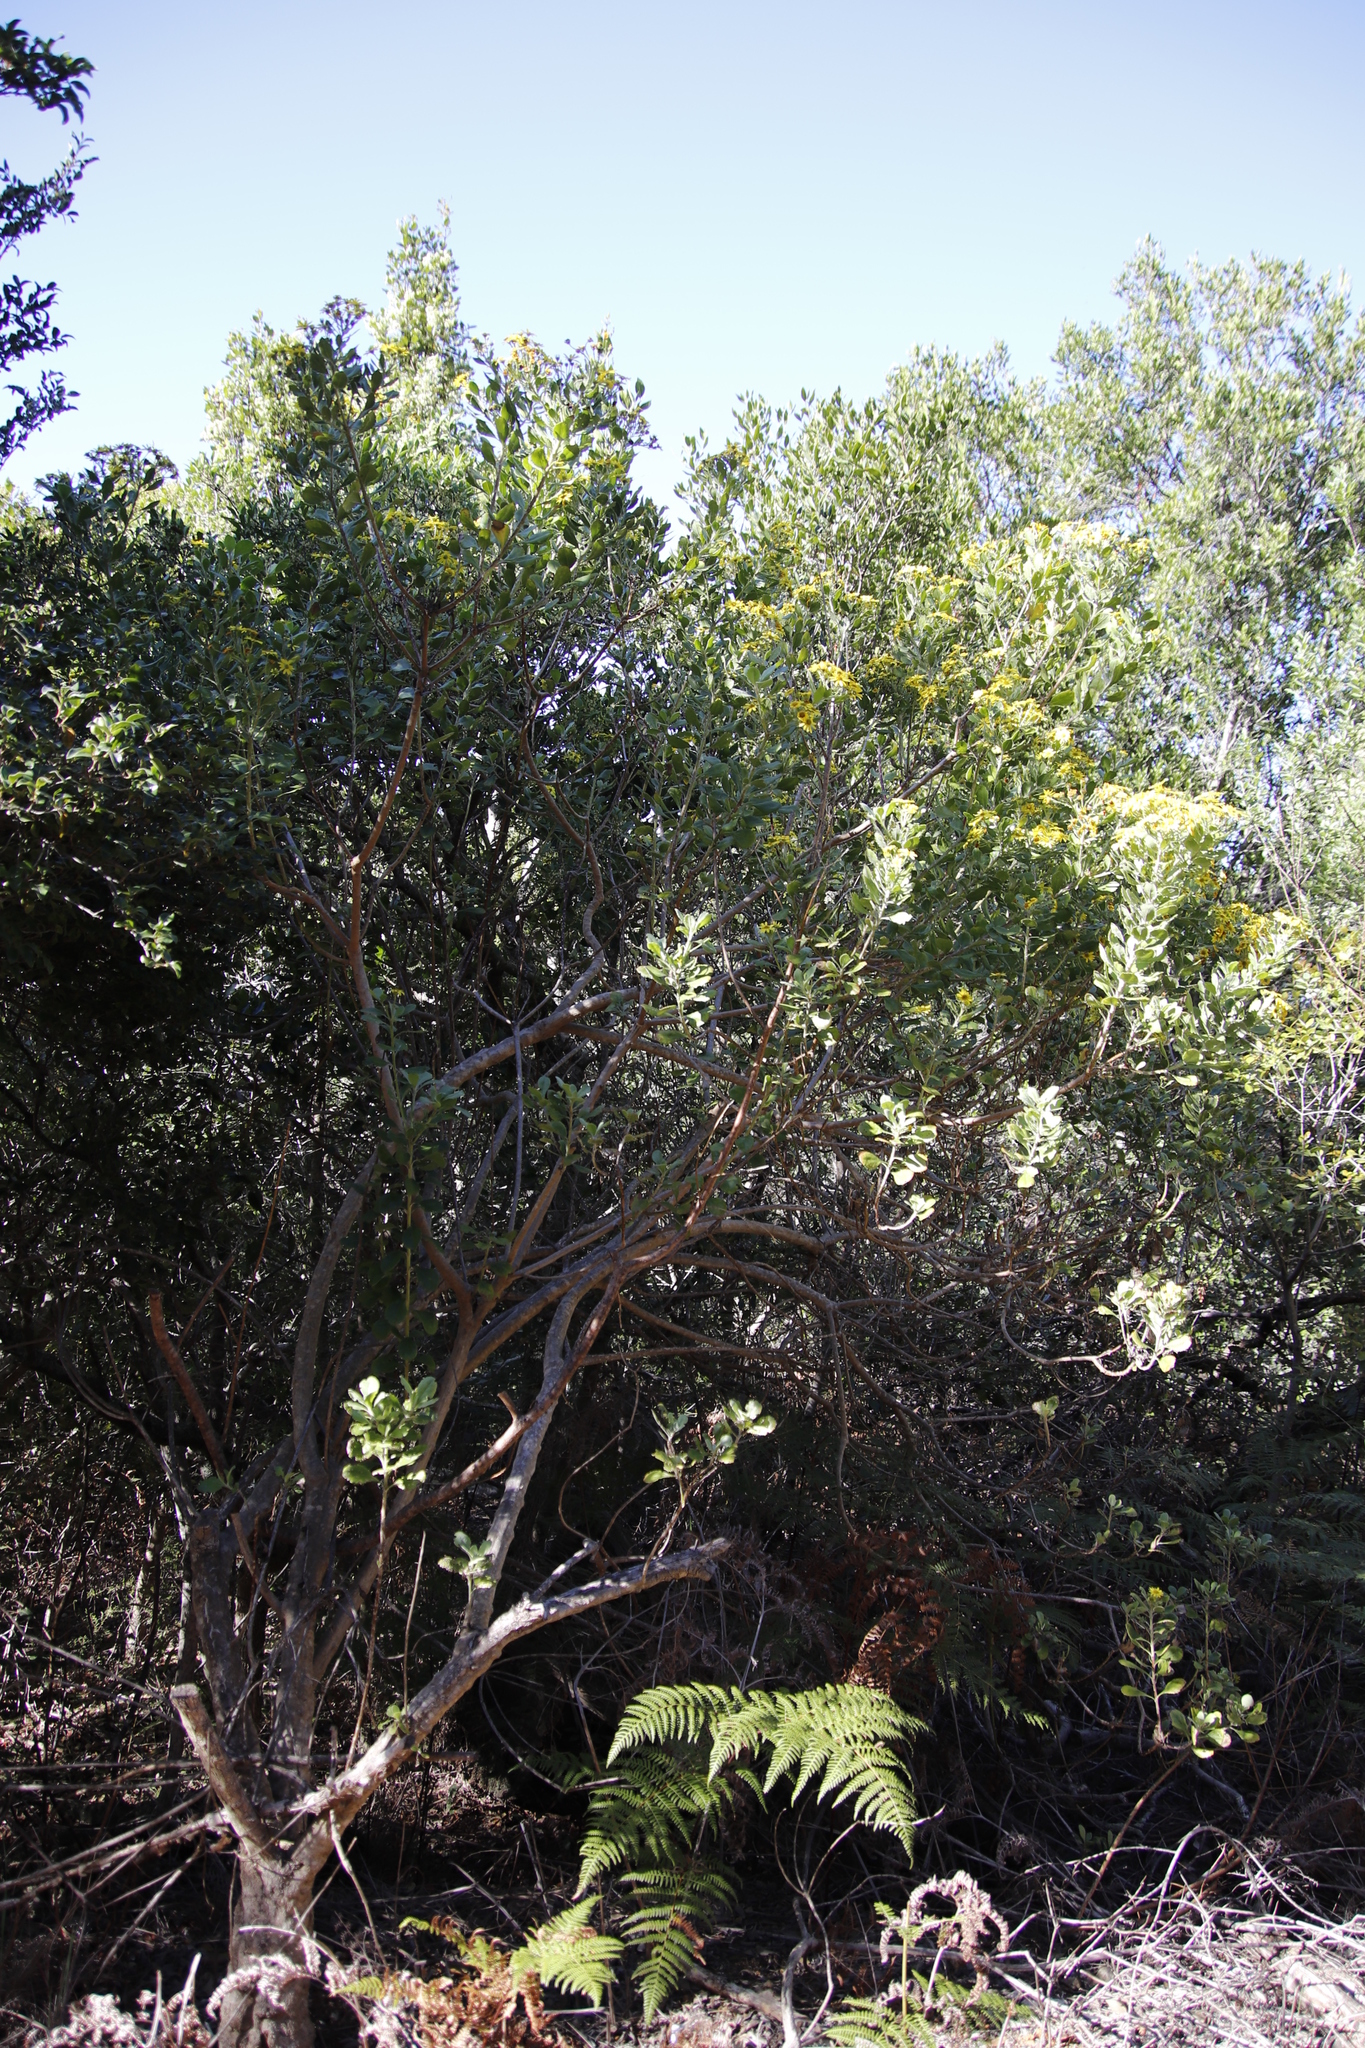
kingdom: Plantae
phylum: Tracheophyta
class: Magnoliopsida
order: Asterales
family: Asteraceae
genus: Osteospermum
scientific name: Osteospermum moniliferum
